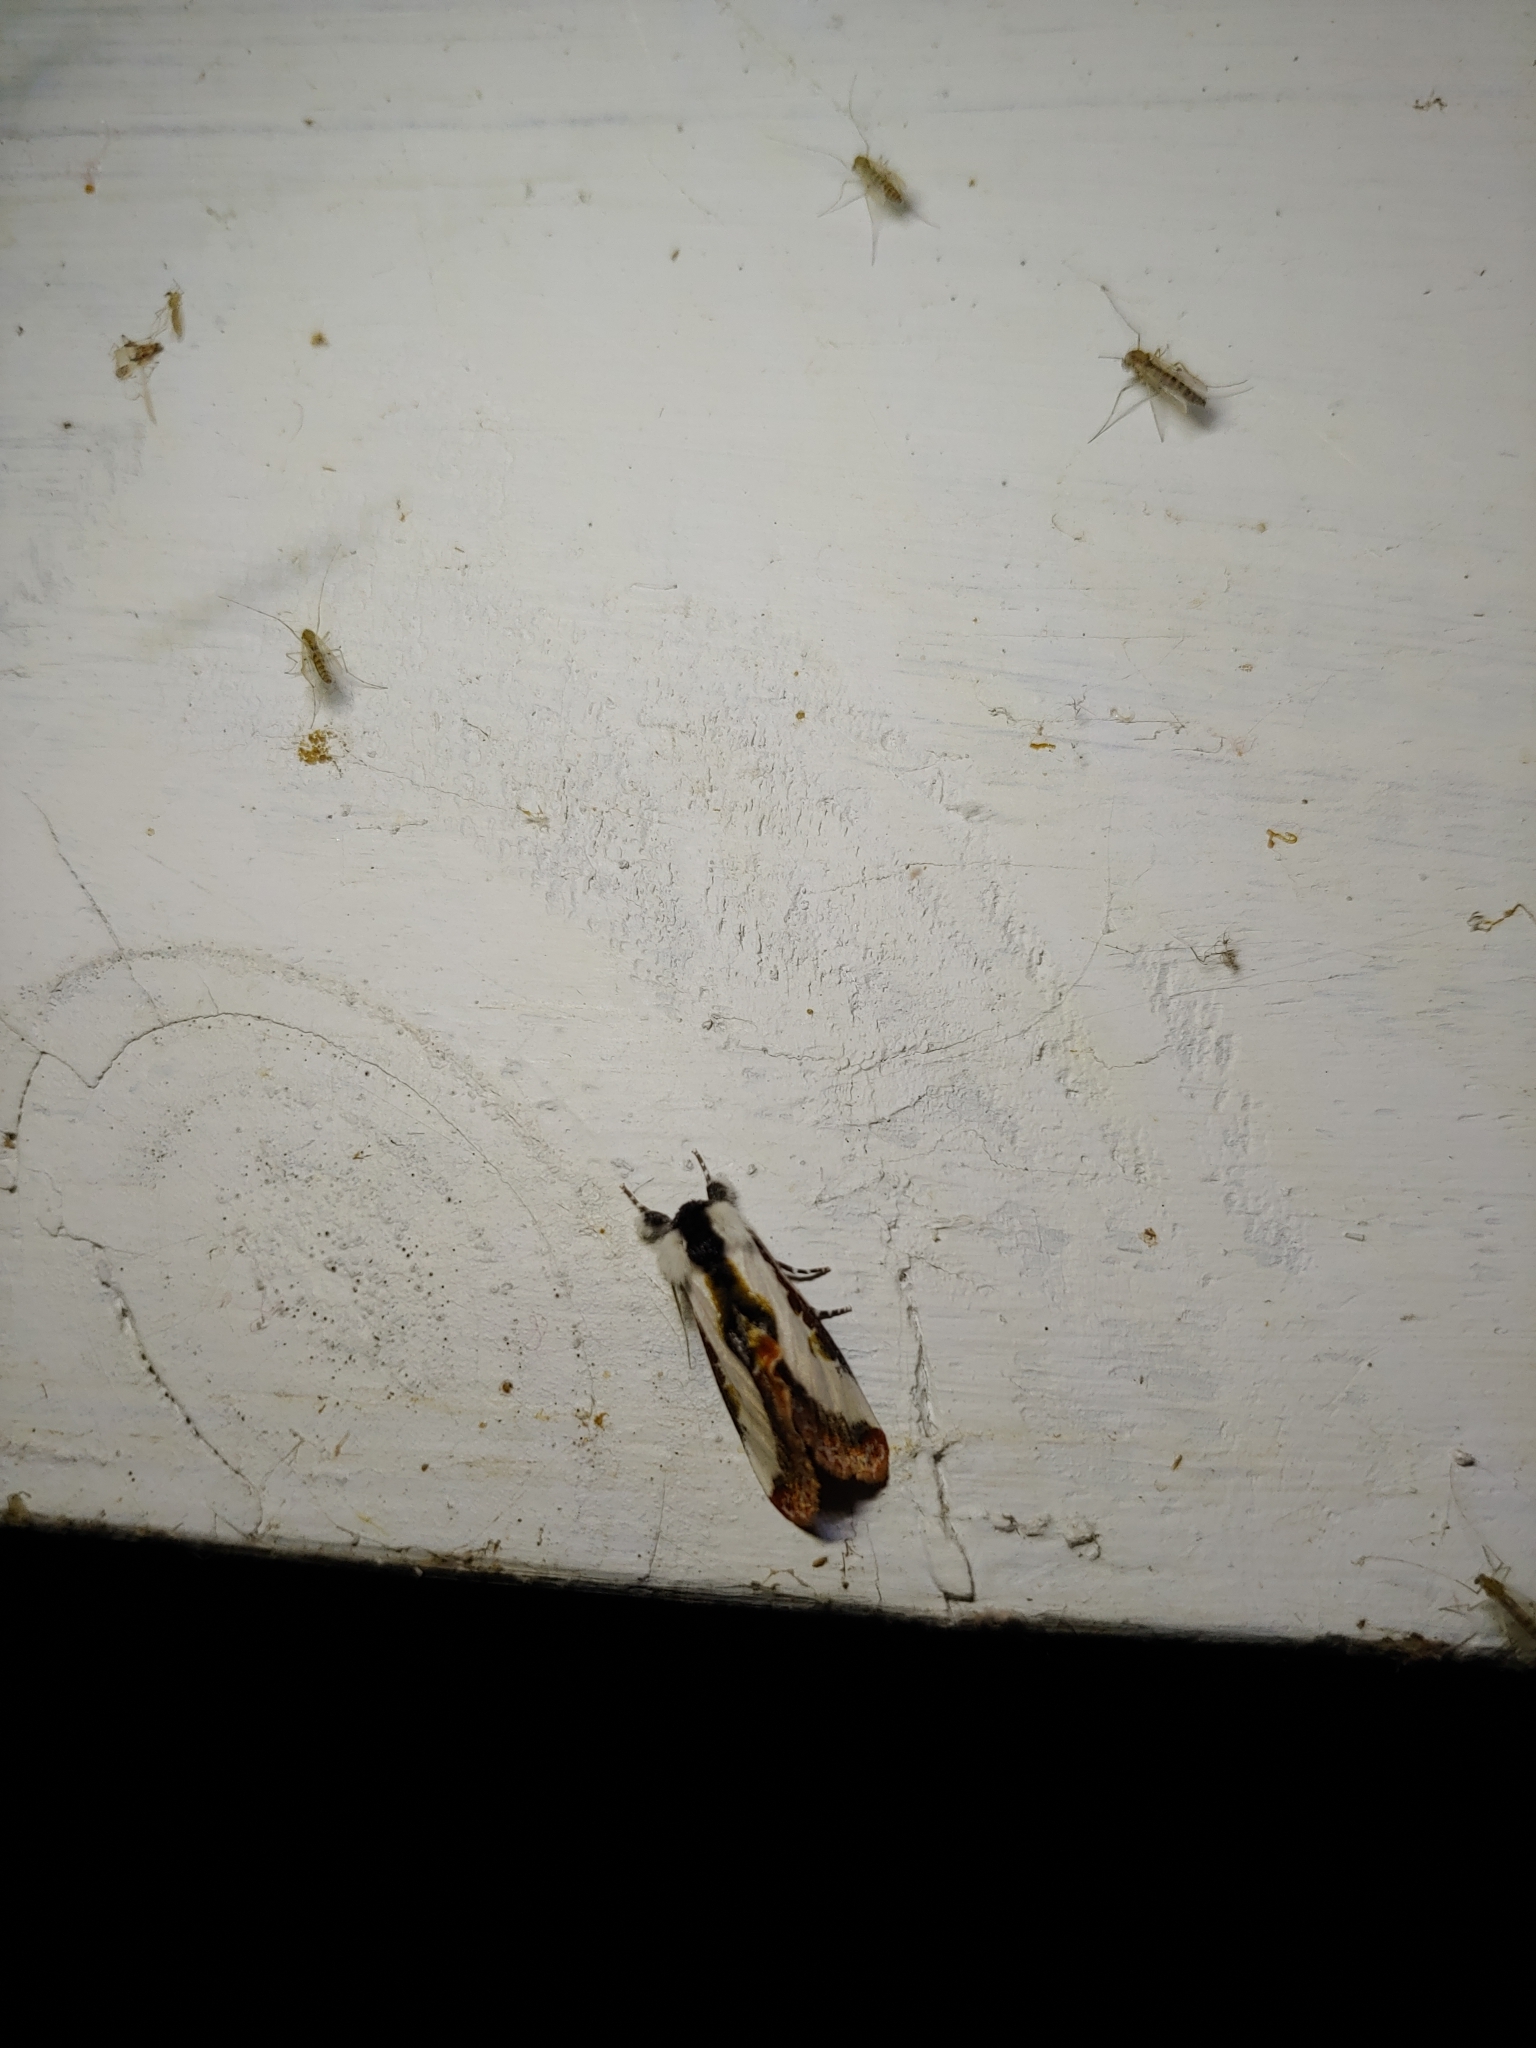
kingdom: Animalia
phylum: Arthropoda
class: Insecta
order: Lepidoptera
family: Noctuidae
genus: Eudryas
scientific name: Eudryas unio
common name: Pearly wood-nymph
